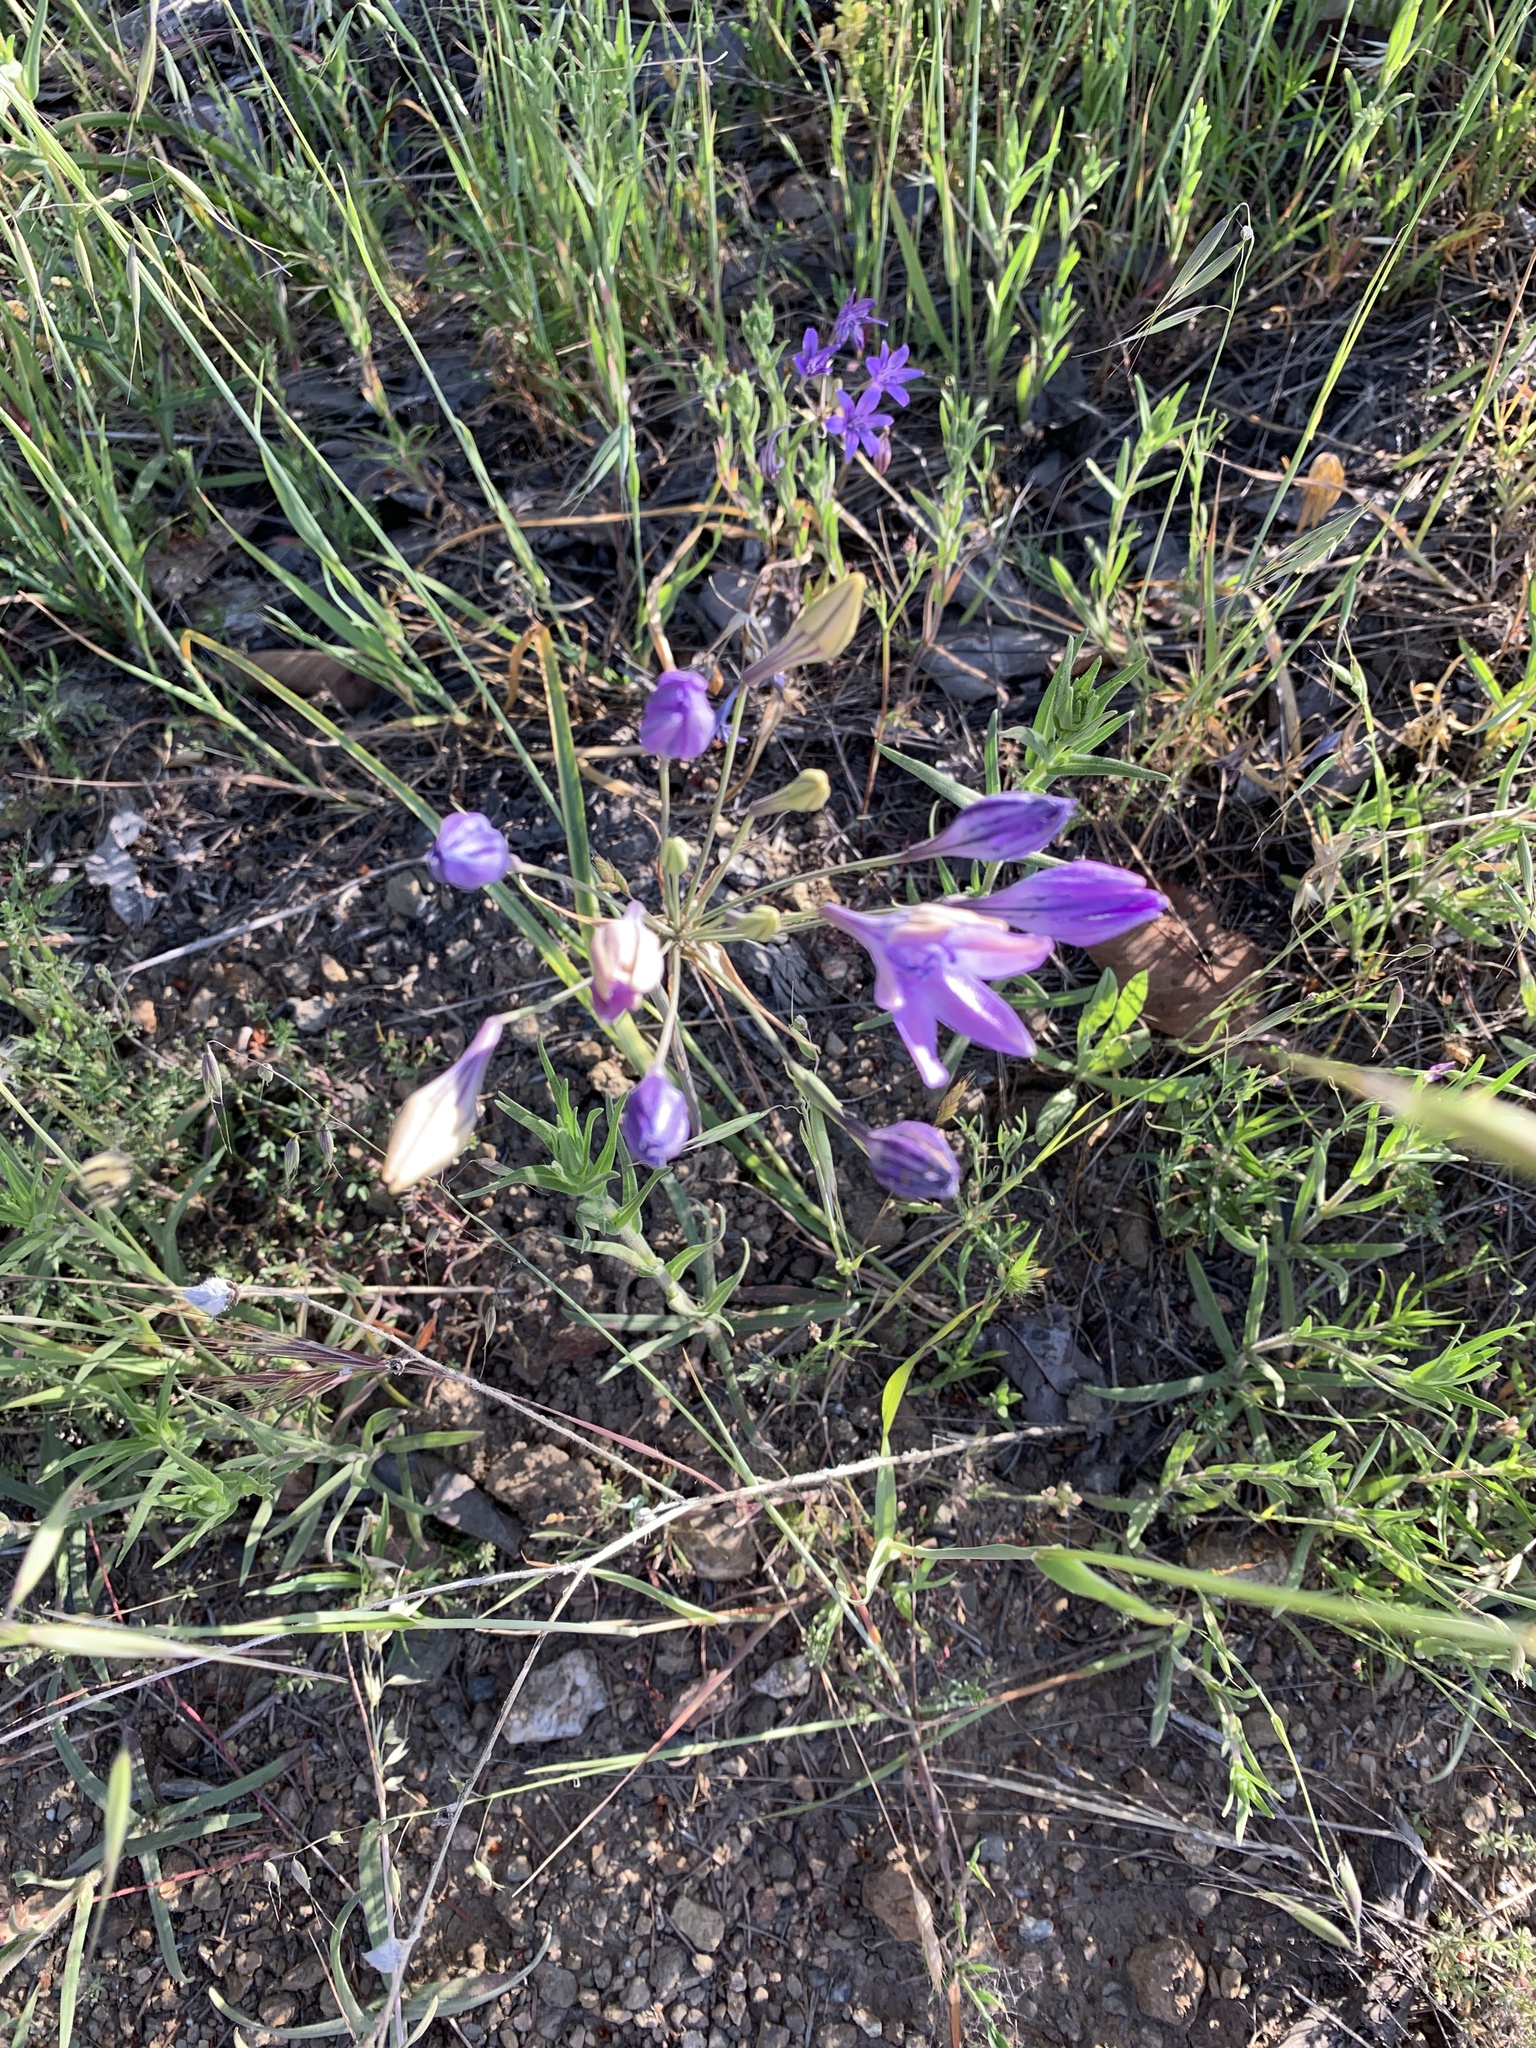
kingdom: Plantae
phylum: Tracheophyta
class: Liliopsida
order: Asparagales
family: Asparagaceae
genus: Triteleia
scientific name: Triteleia laxa
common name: Triplet-lily
